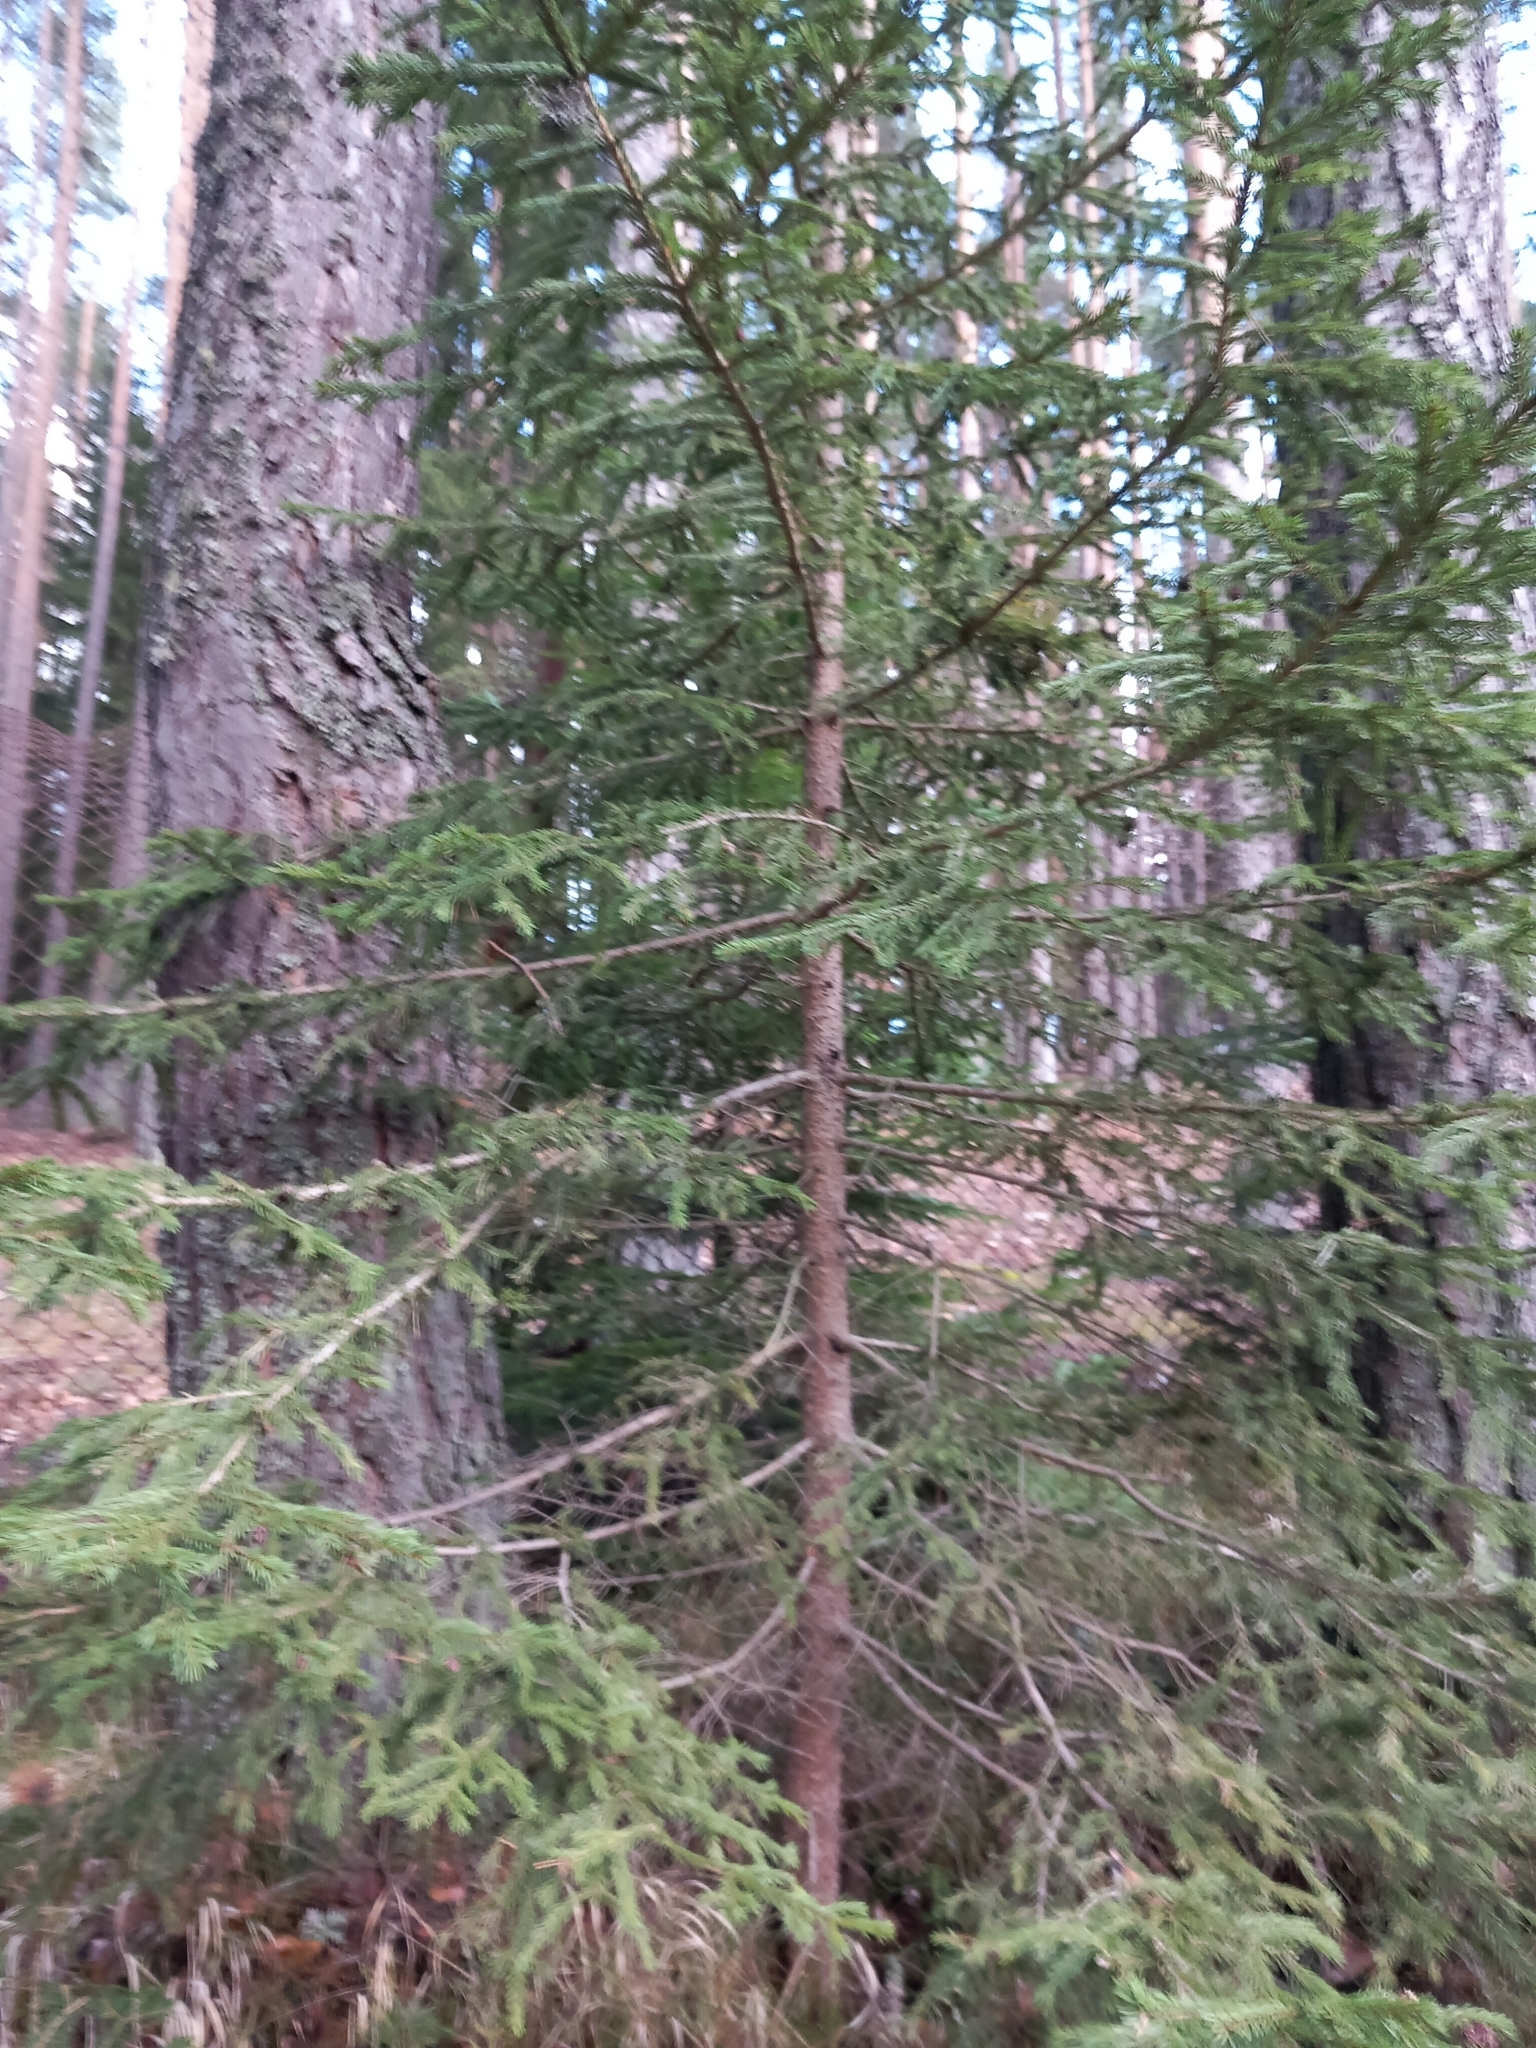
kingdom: Plantae
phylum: Tracheophyta
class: Pinopsida
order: Pinales
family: Pinaceae
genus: Picea
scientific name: Picea abies
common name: Norway spruce
